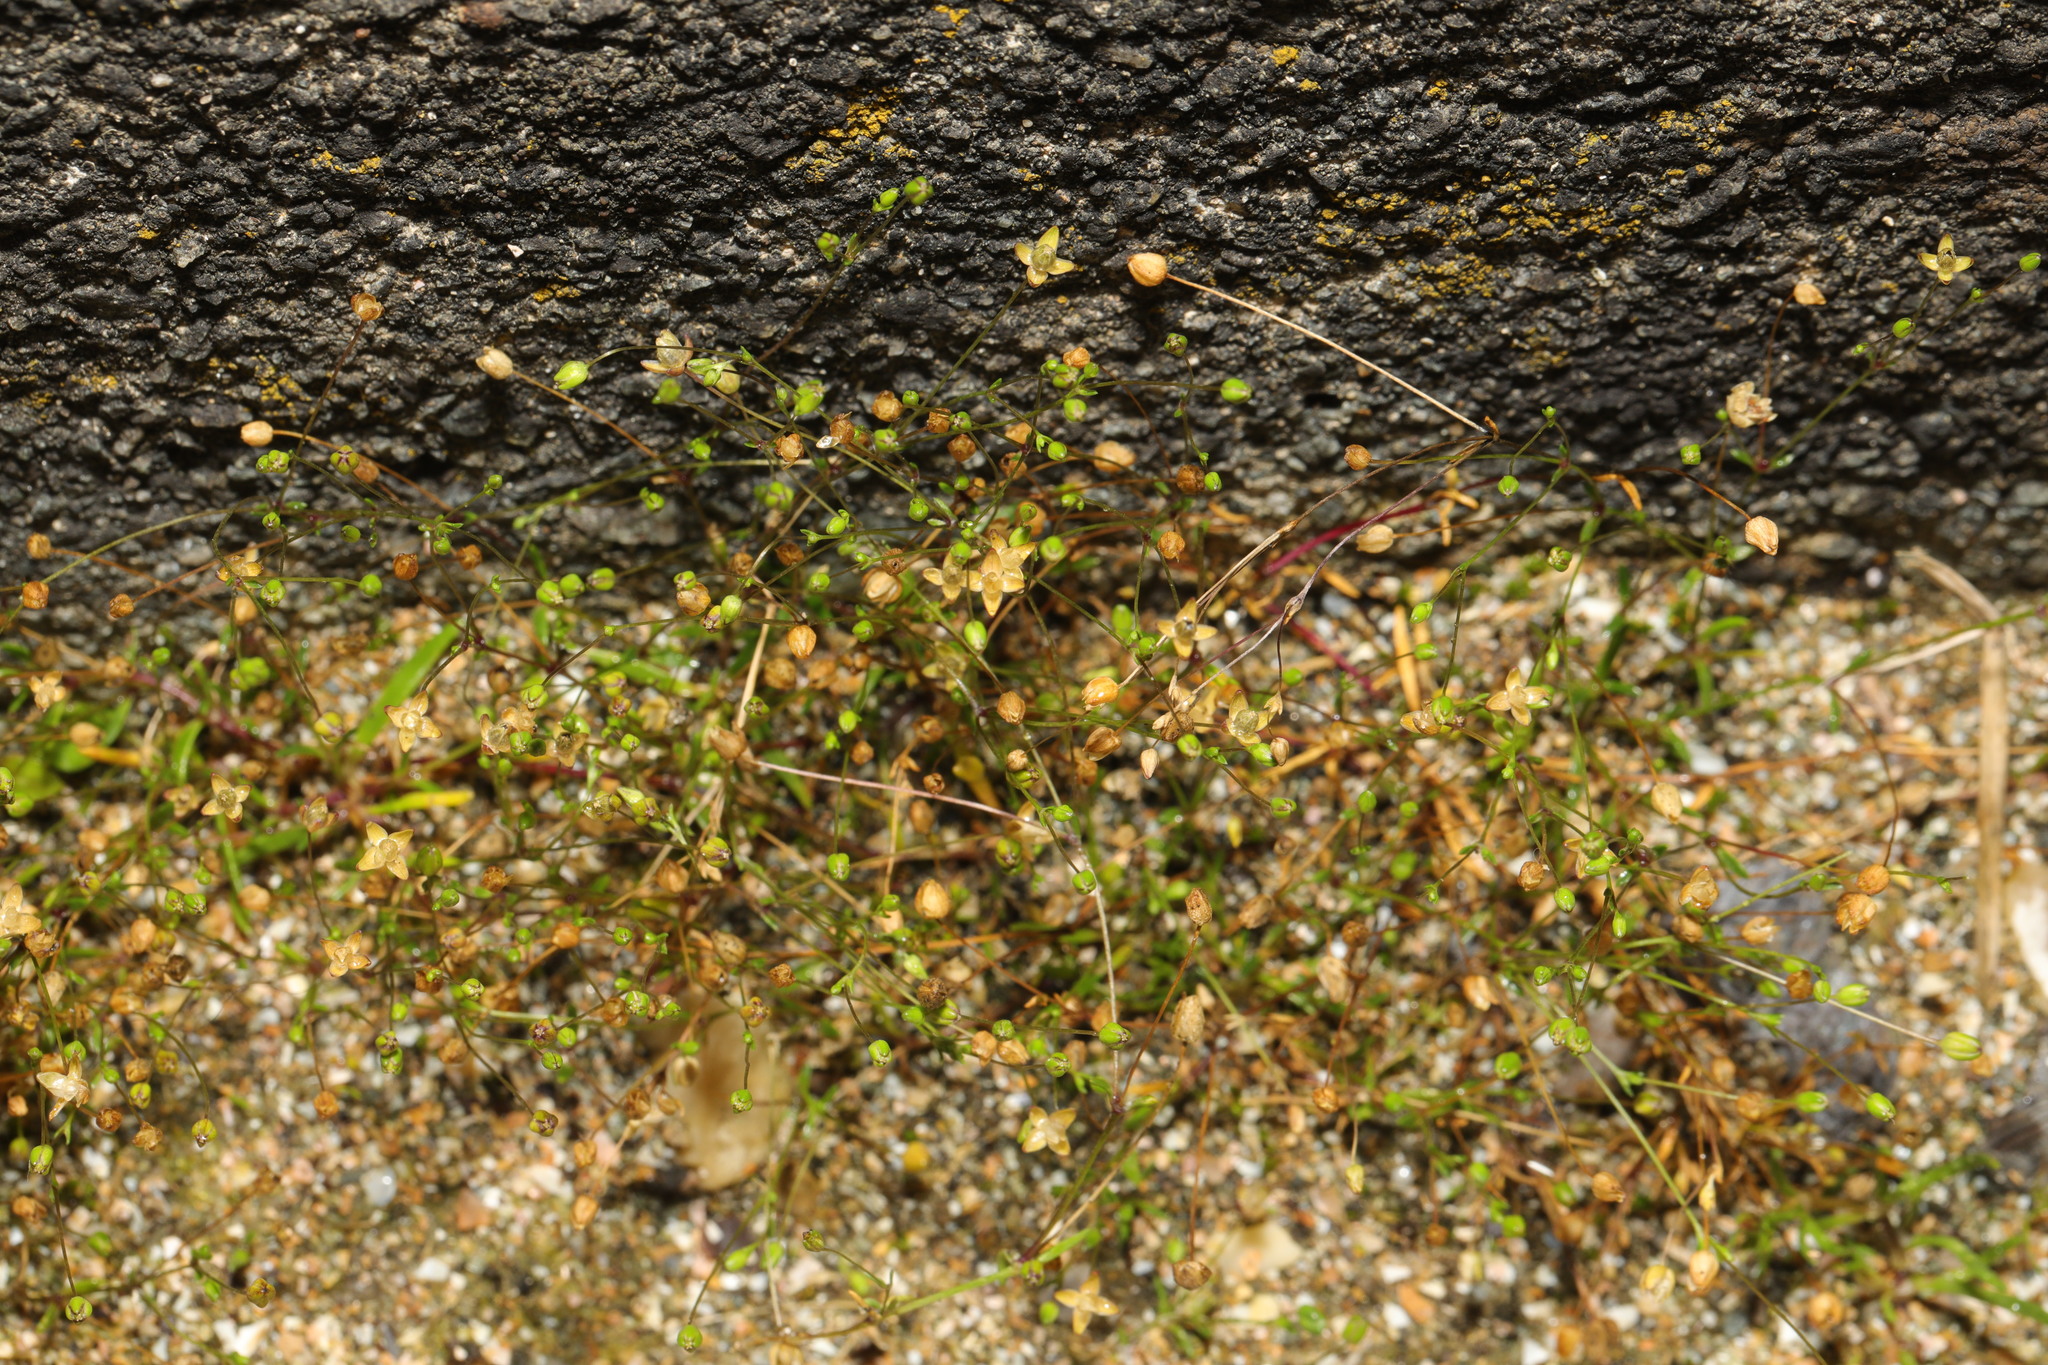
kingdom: Plantae
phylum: Tracheophyta
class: Magnoliopsida
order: Caryophyllales
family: Caryophyllaceae
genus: Arenaria
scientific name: Arenaria serpyllifolia
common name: Thyme-leaved sandwort
